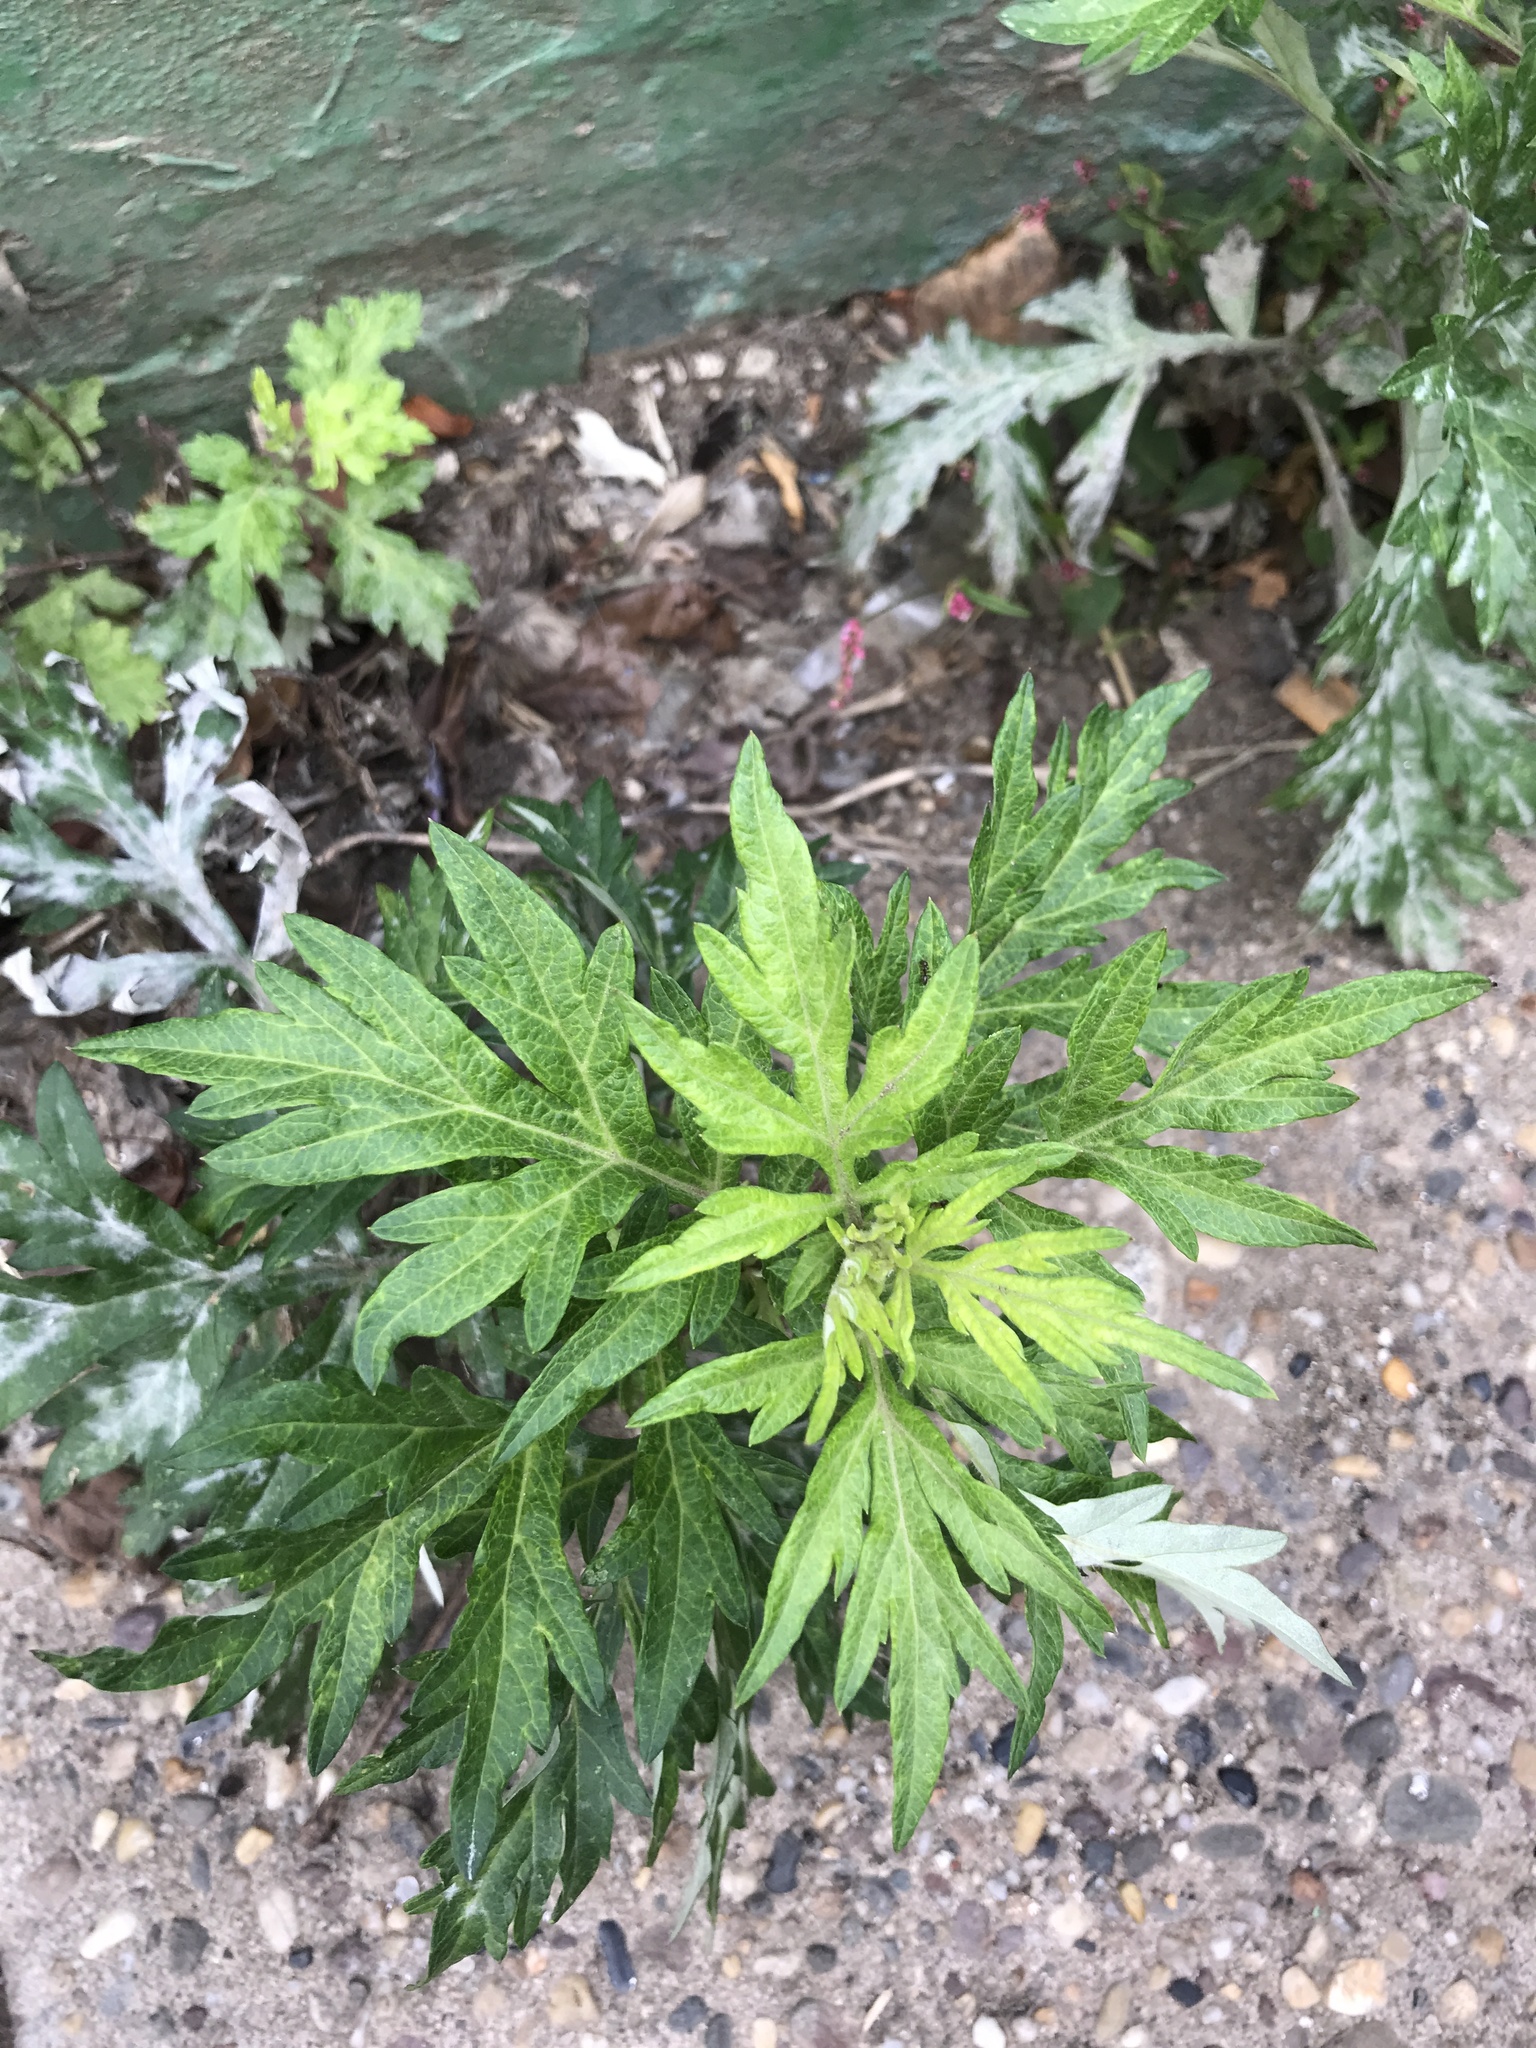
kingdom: Plantae
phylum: Tracheophyta
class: Magnoliopsida
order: Asterales
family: Asteraceae
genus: Artemisia
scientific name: Artemisia vulgaris
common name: Mugwort
